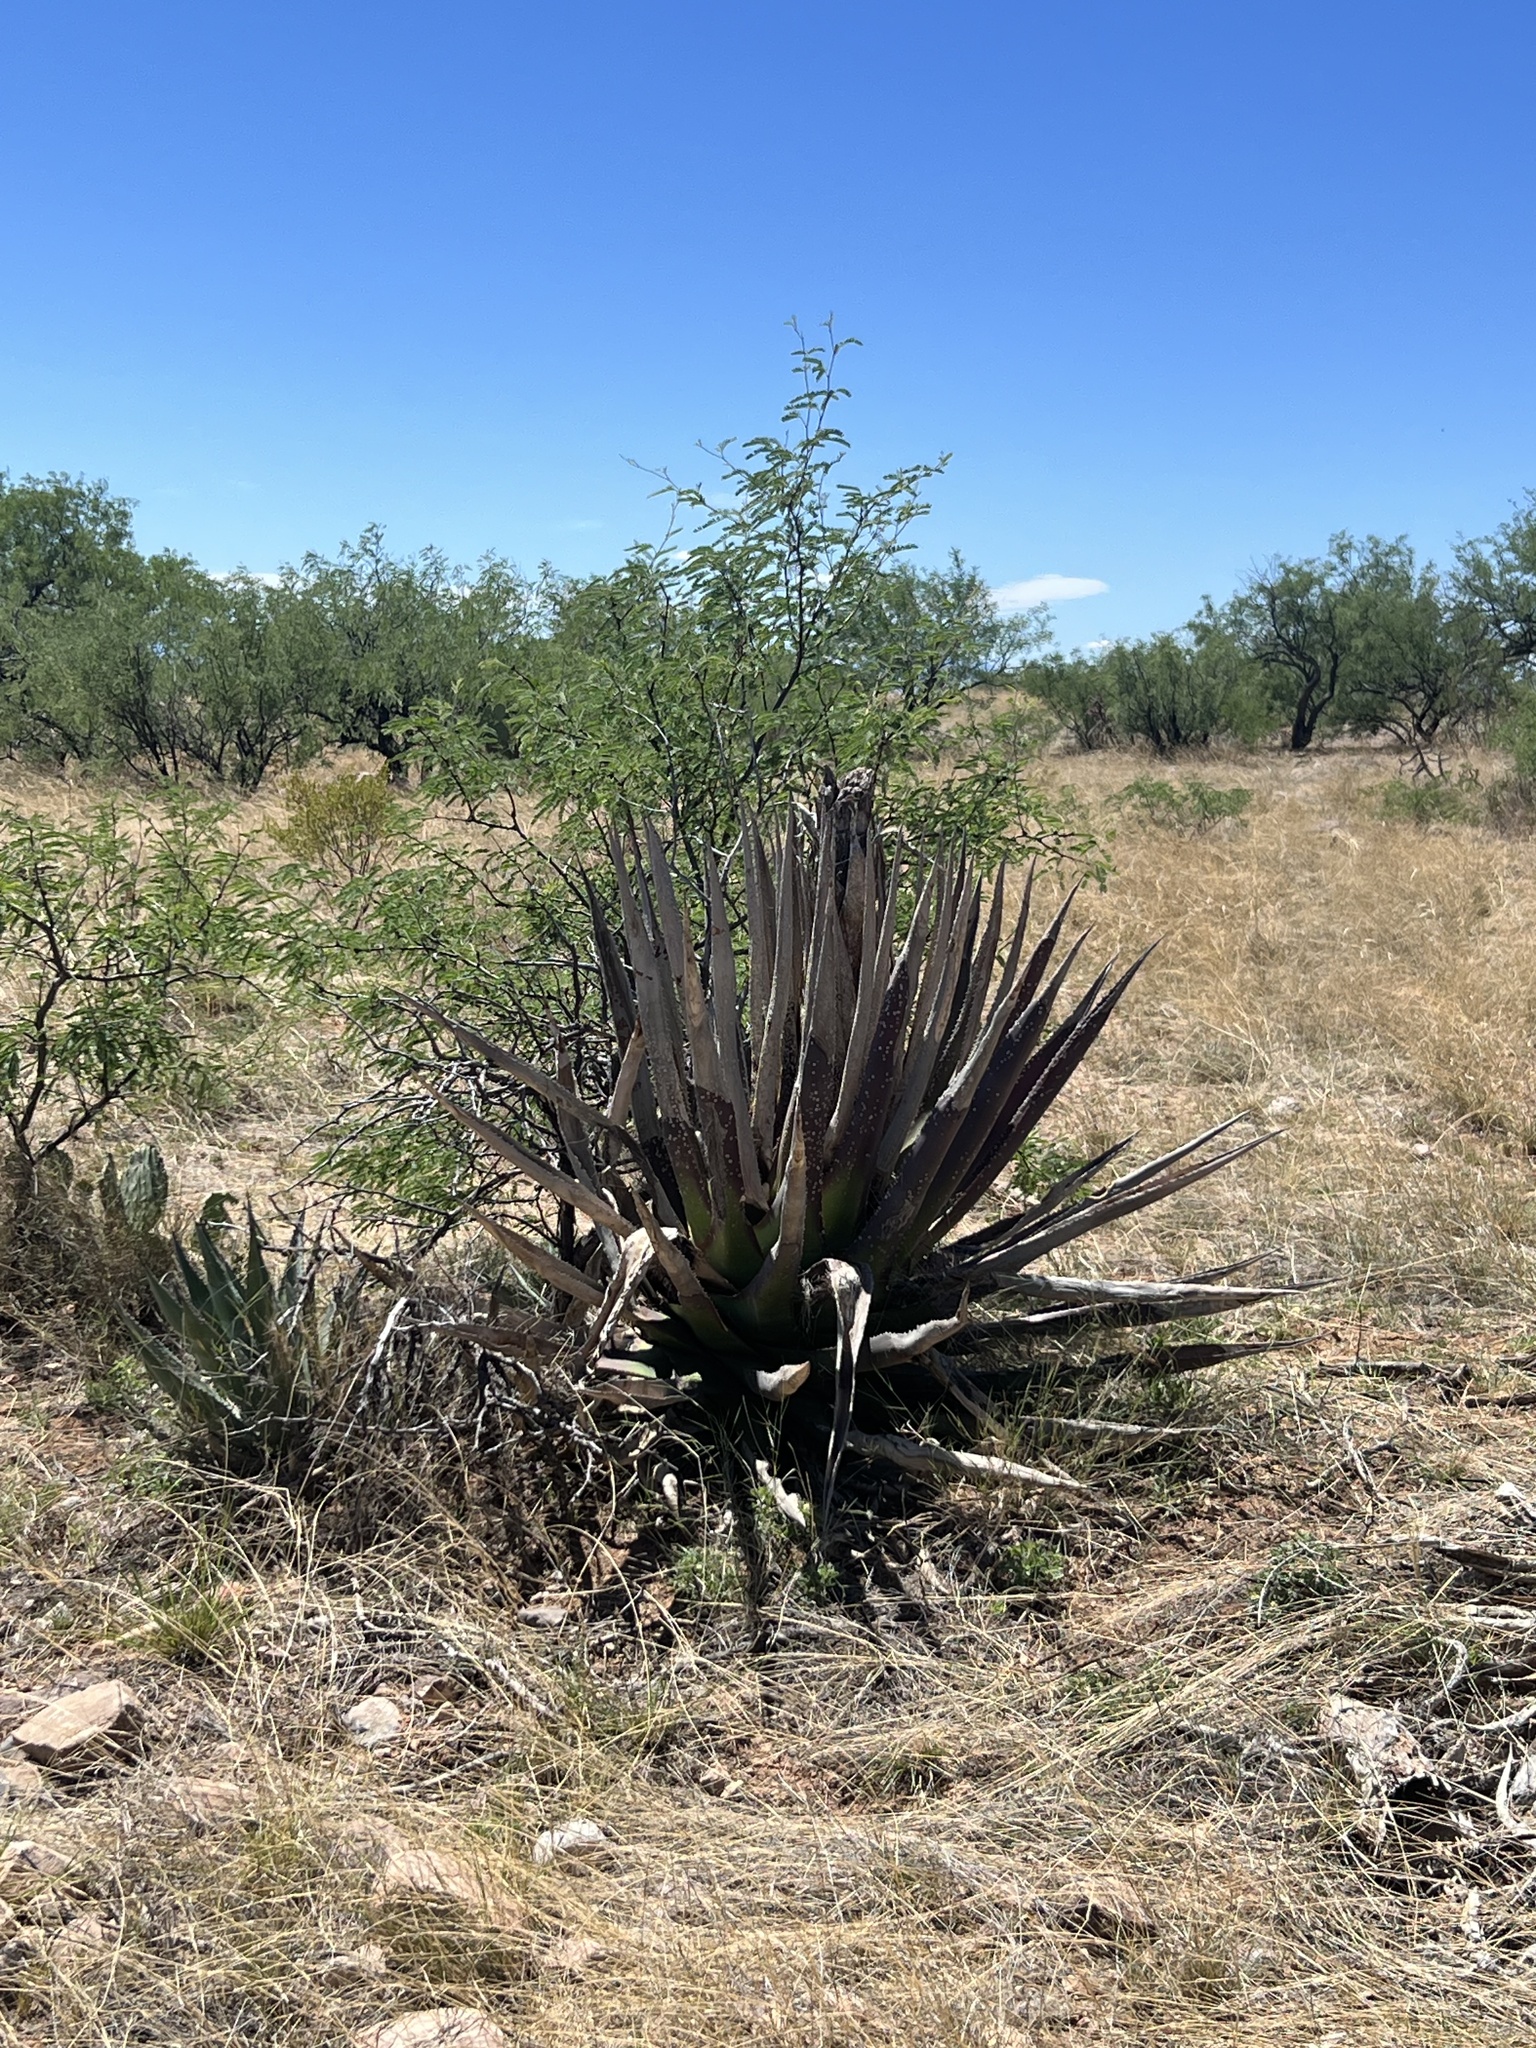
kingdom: Plantae
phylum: Tracheophyta
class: Liliopsida
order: Asparagales
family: Asparagaceae
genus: Agave
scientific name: Agave palmeri
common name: Palmer agave
